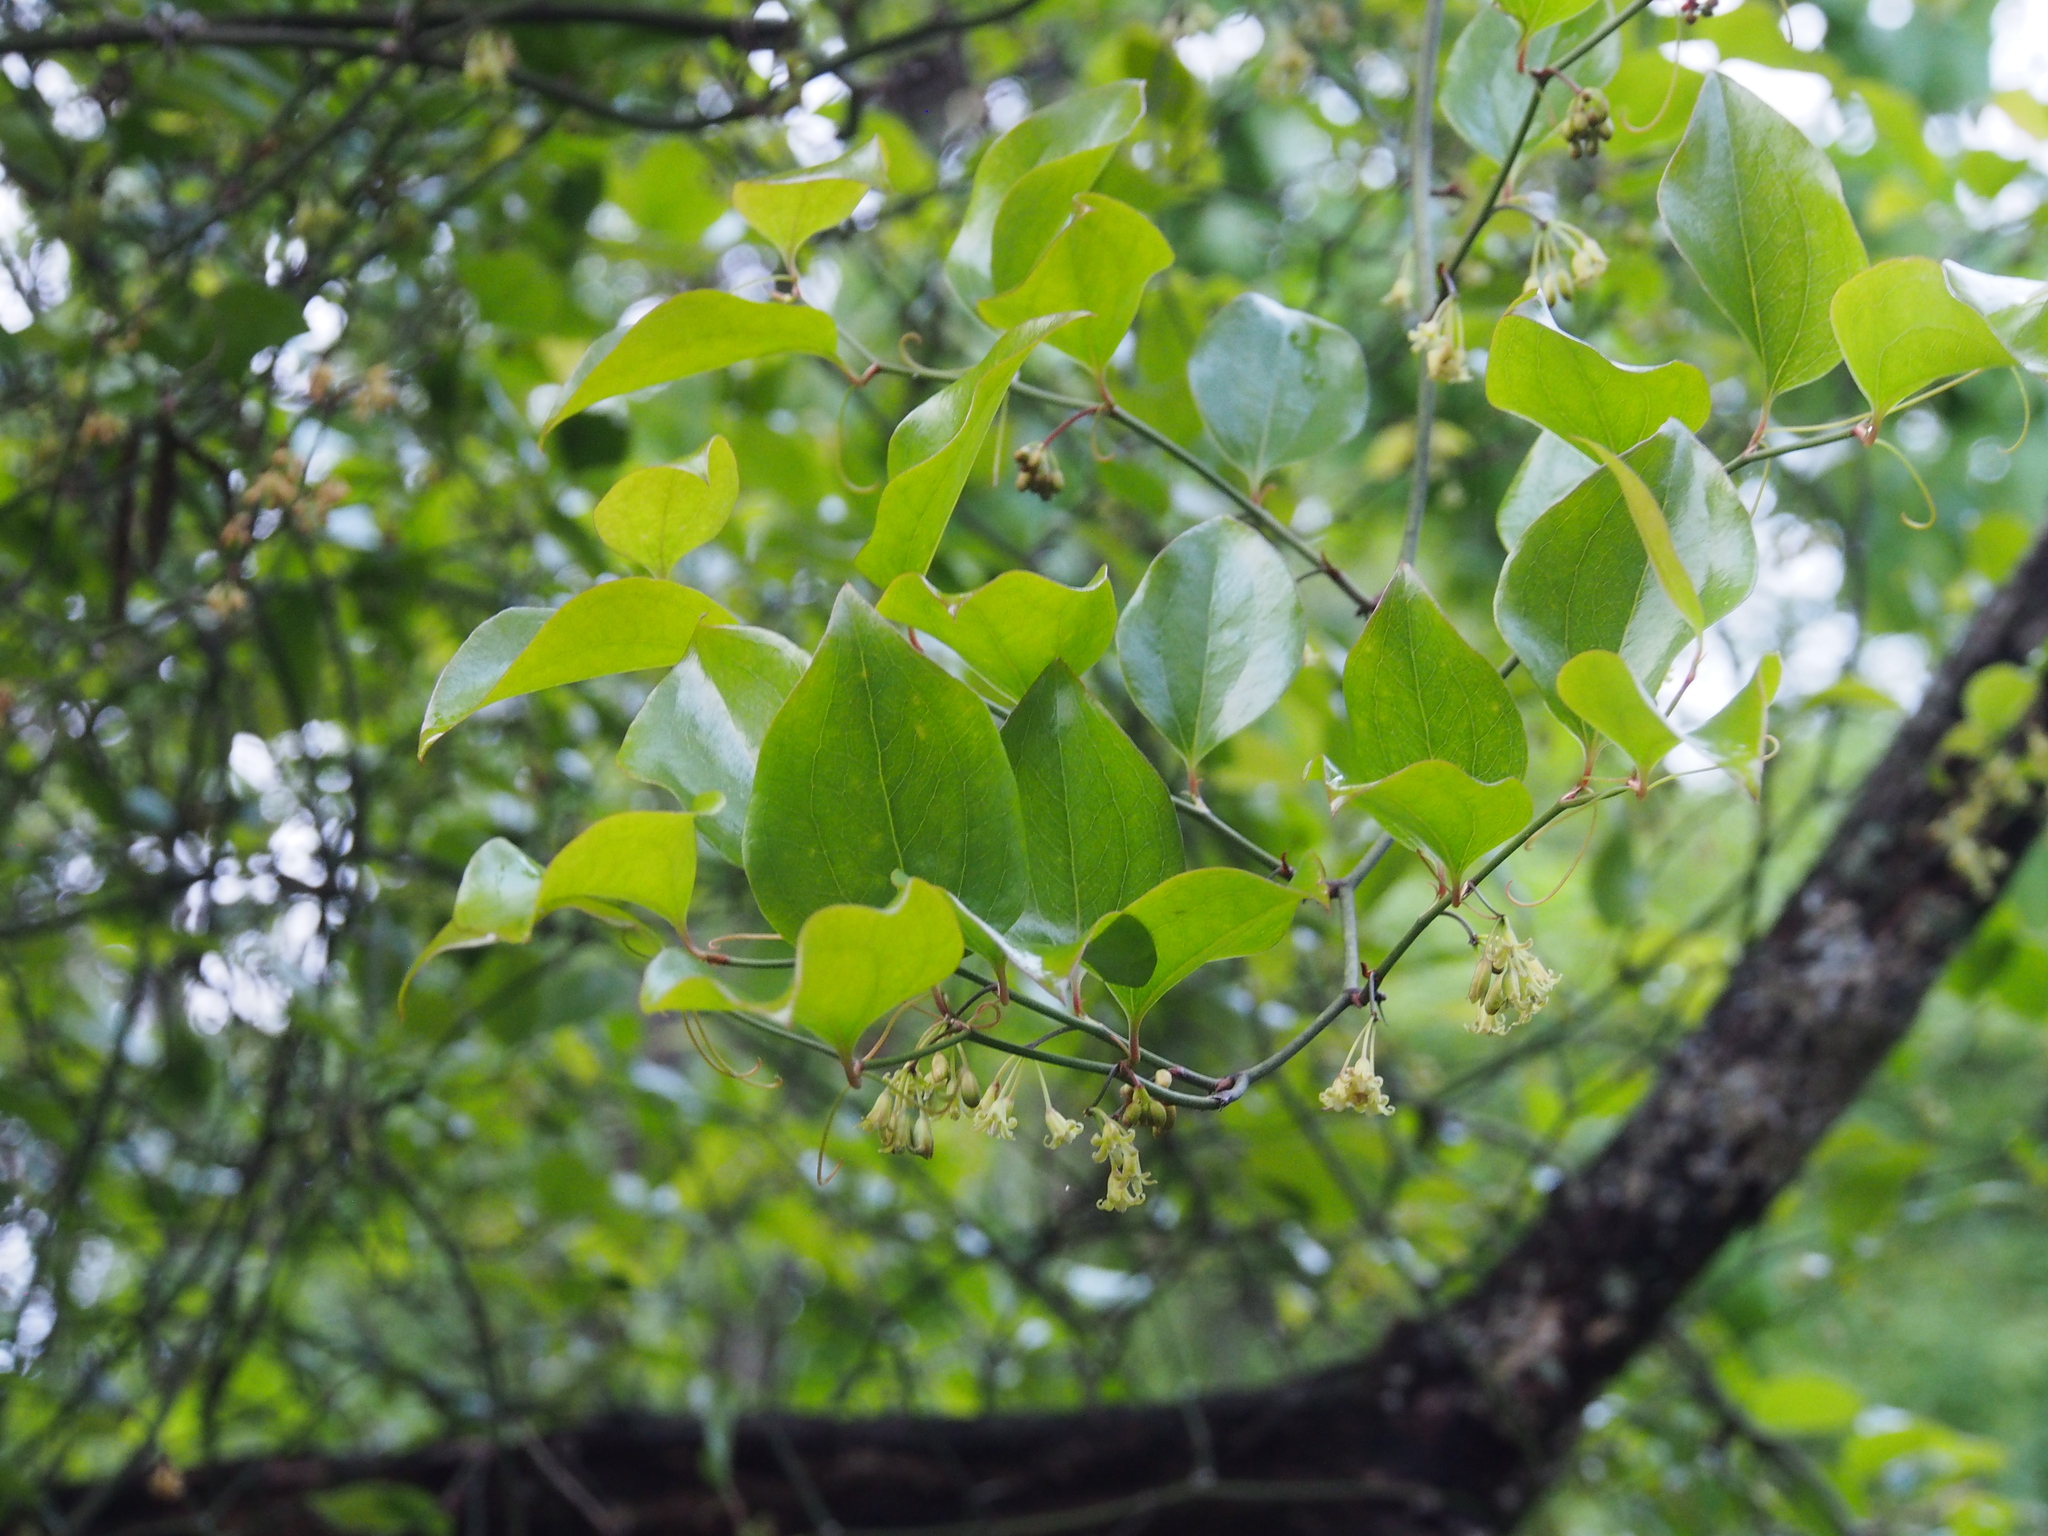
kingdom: Plantae
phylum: Tracheophyta
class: Liliopsida
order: Liliales
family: Smilacaceae
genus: Smilax
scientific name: Smilax rotundifolia
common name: Bullbriar
